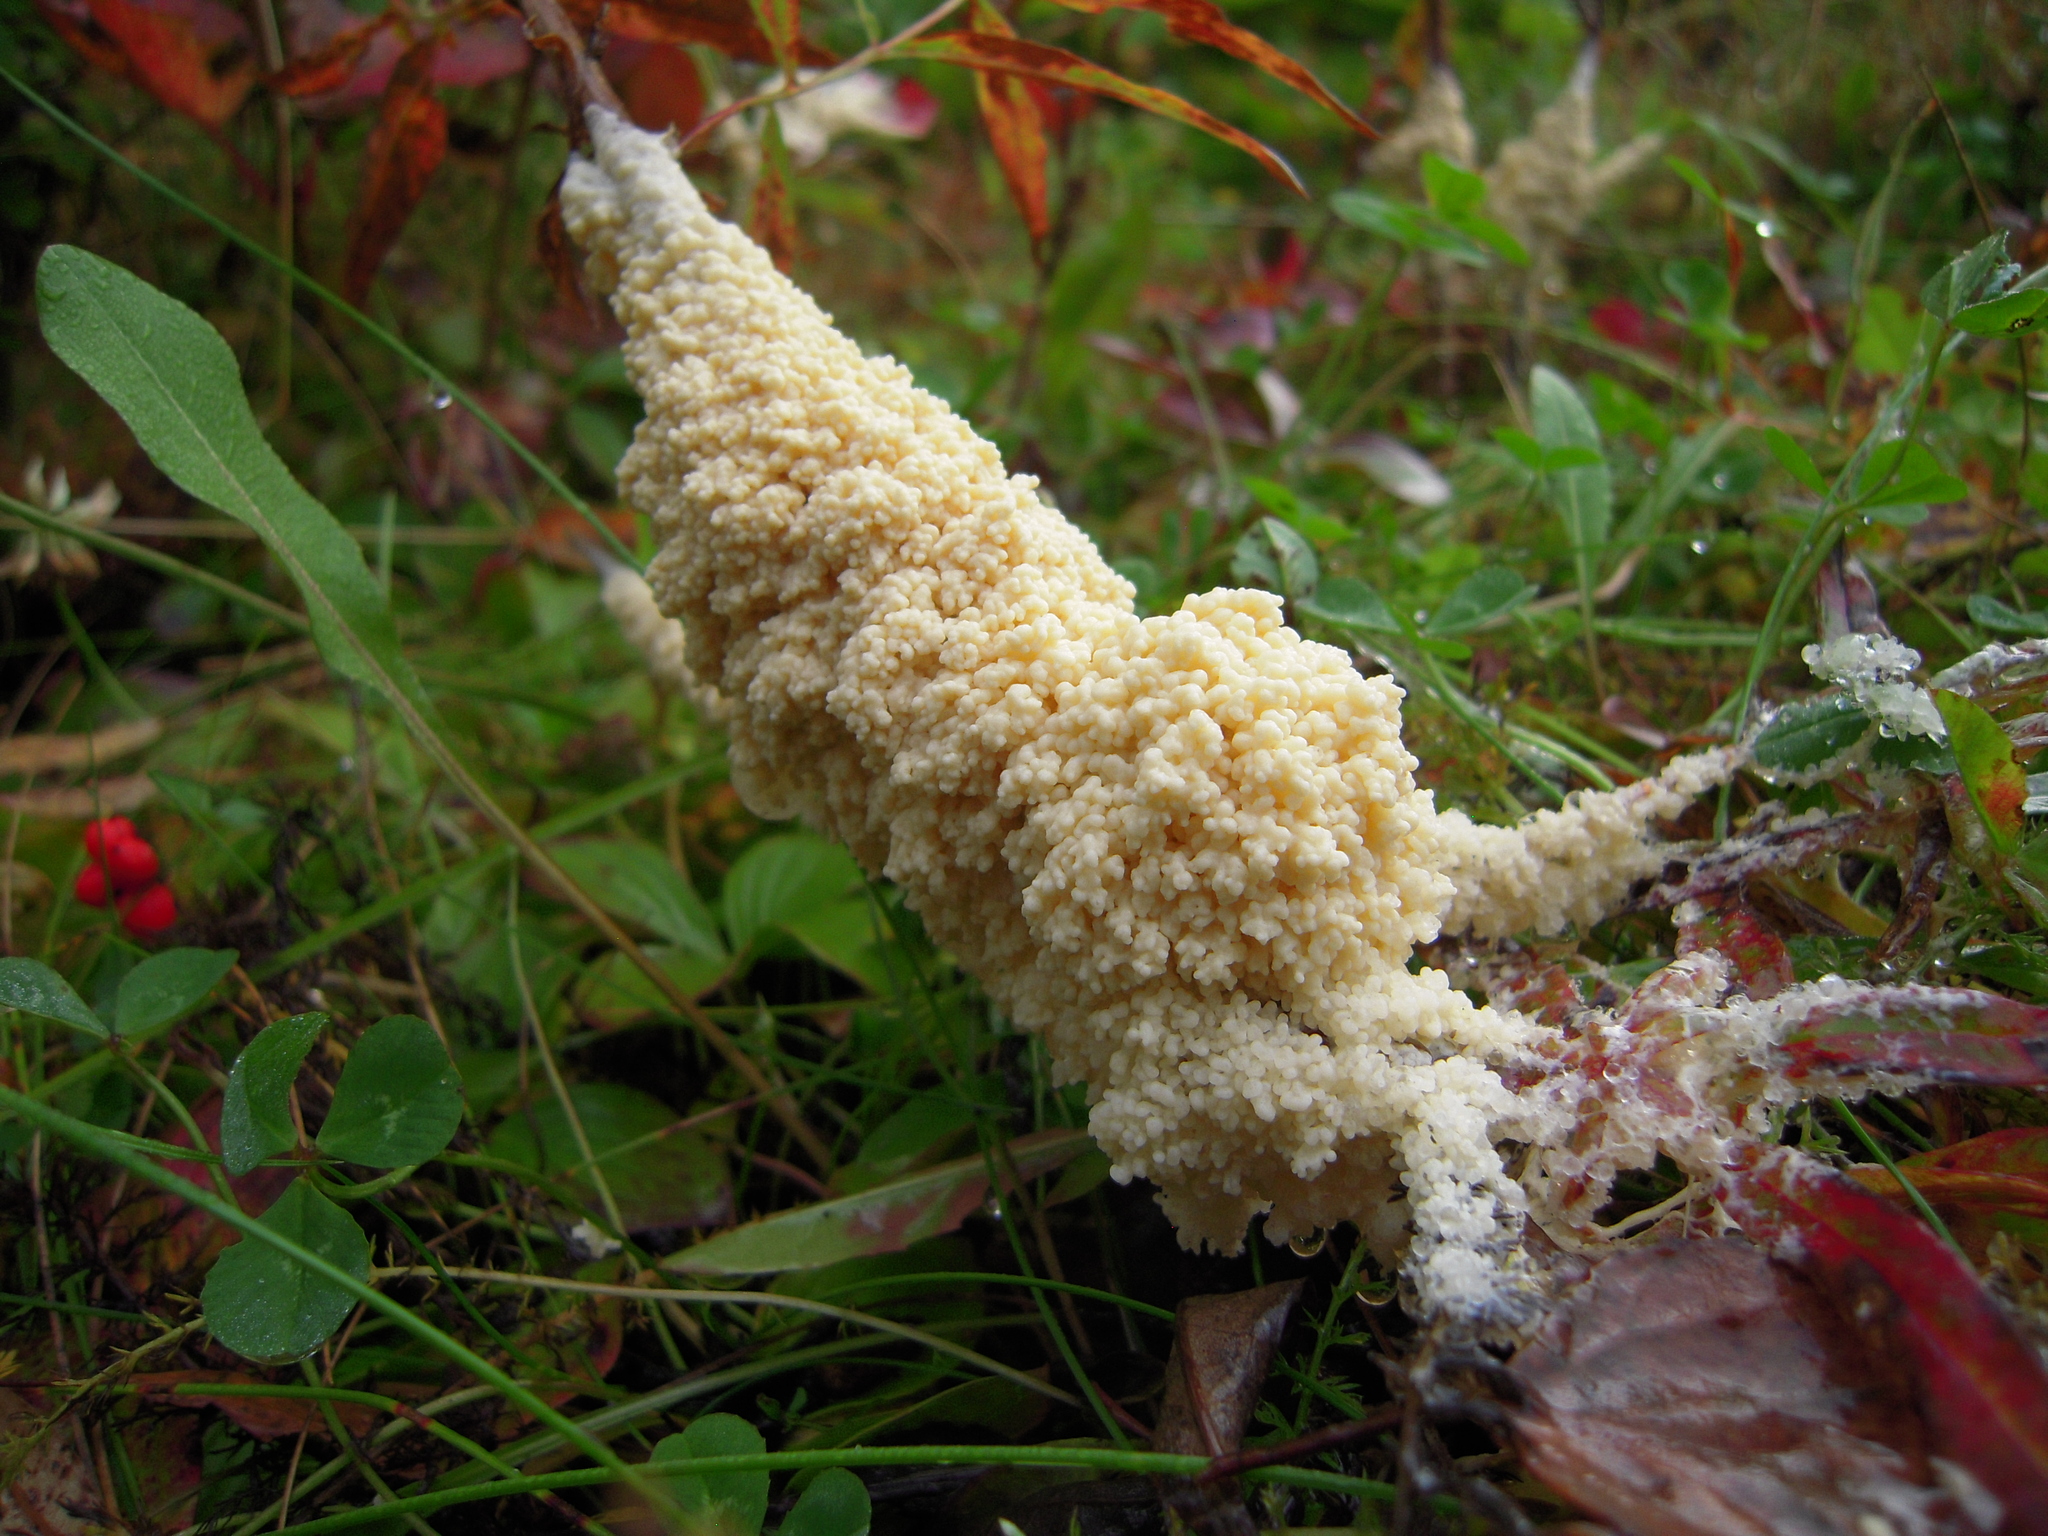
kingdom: Protozoa
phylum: Mycetozoa
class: Myxomycetes
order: Physarales
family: Physaraceae
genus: Didymium
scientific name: Didymium
